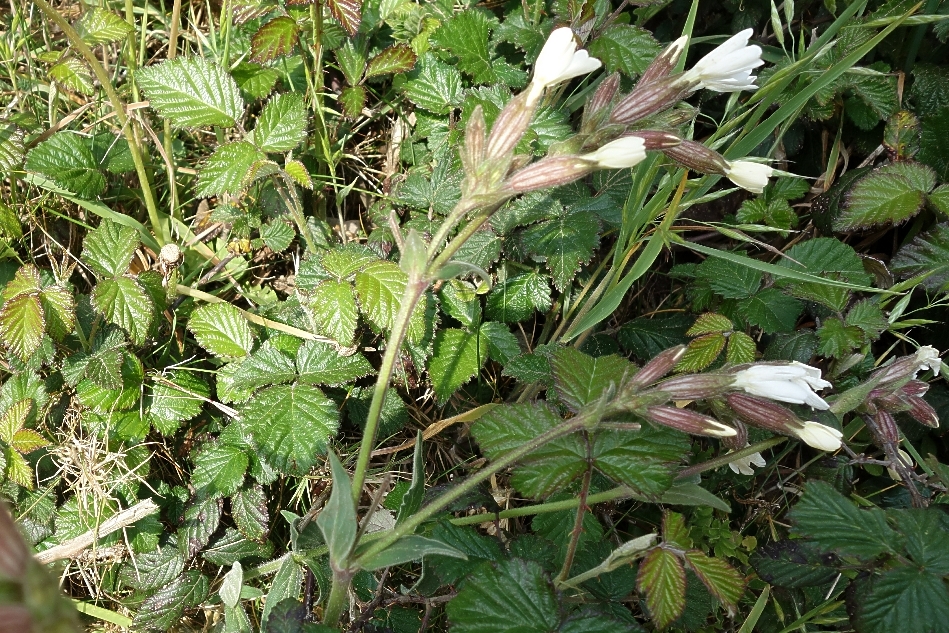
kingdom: Plantae
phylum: Tracheophyta
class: Magnoliopsida
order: Caryophyllales
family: Caryophyllaceae
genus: Silene
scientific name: Silene latifolia
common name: White campion
